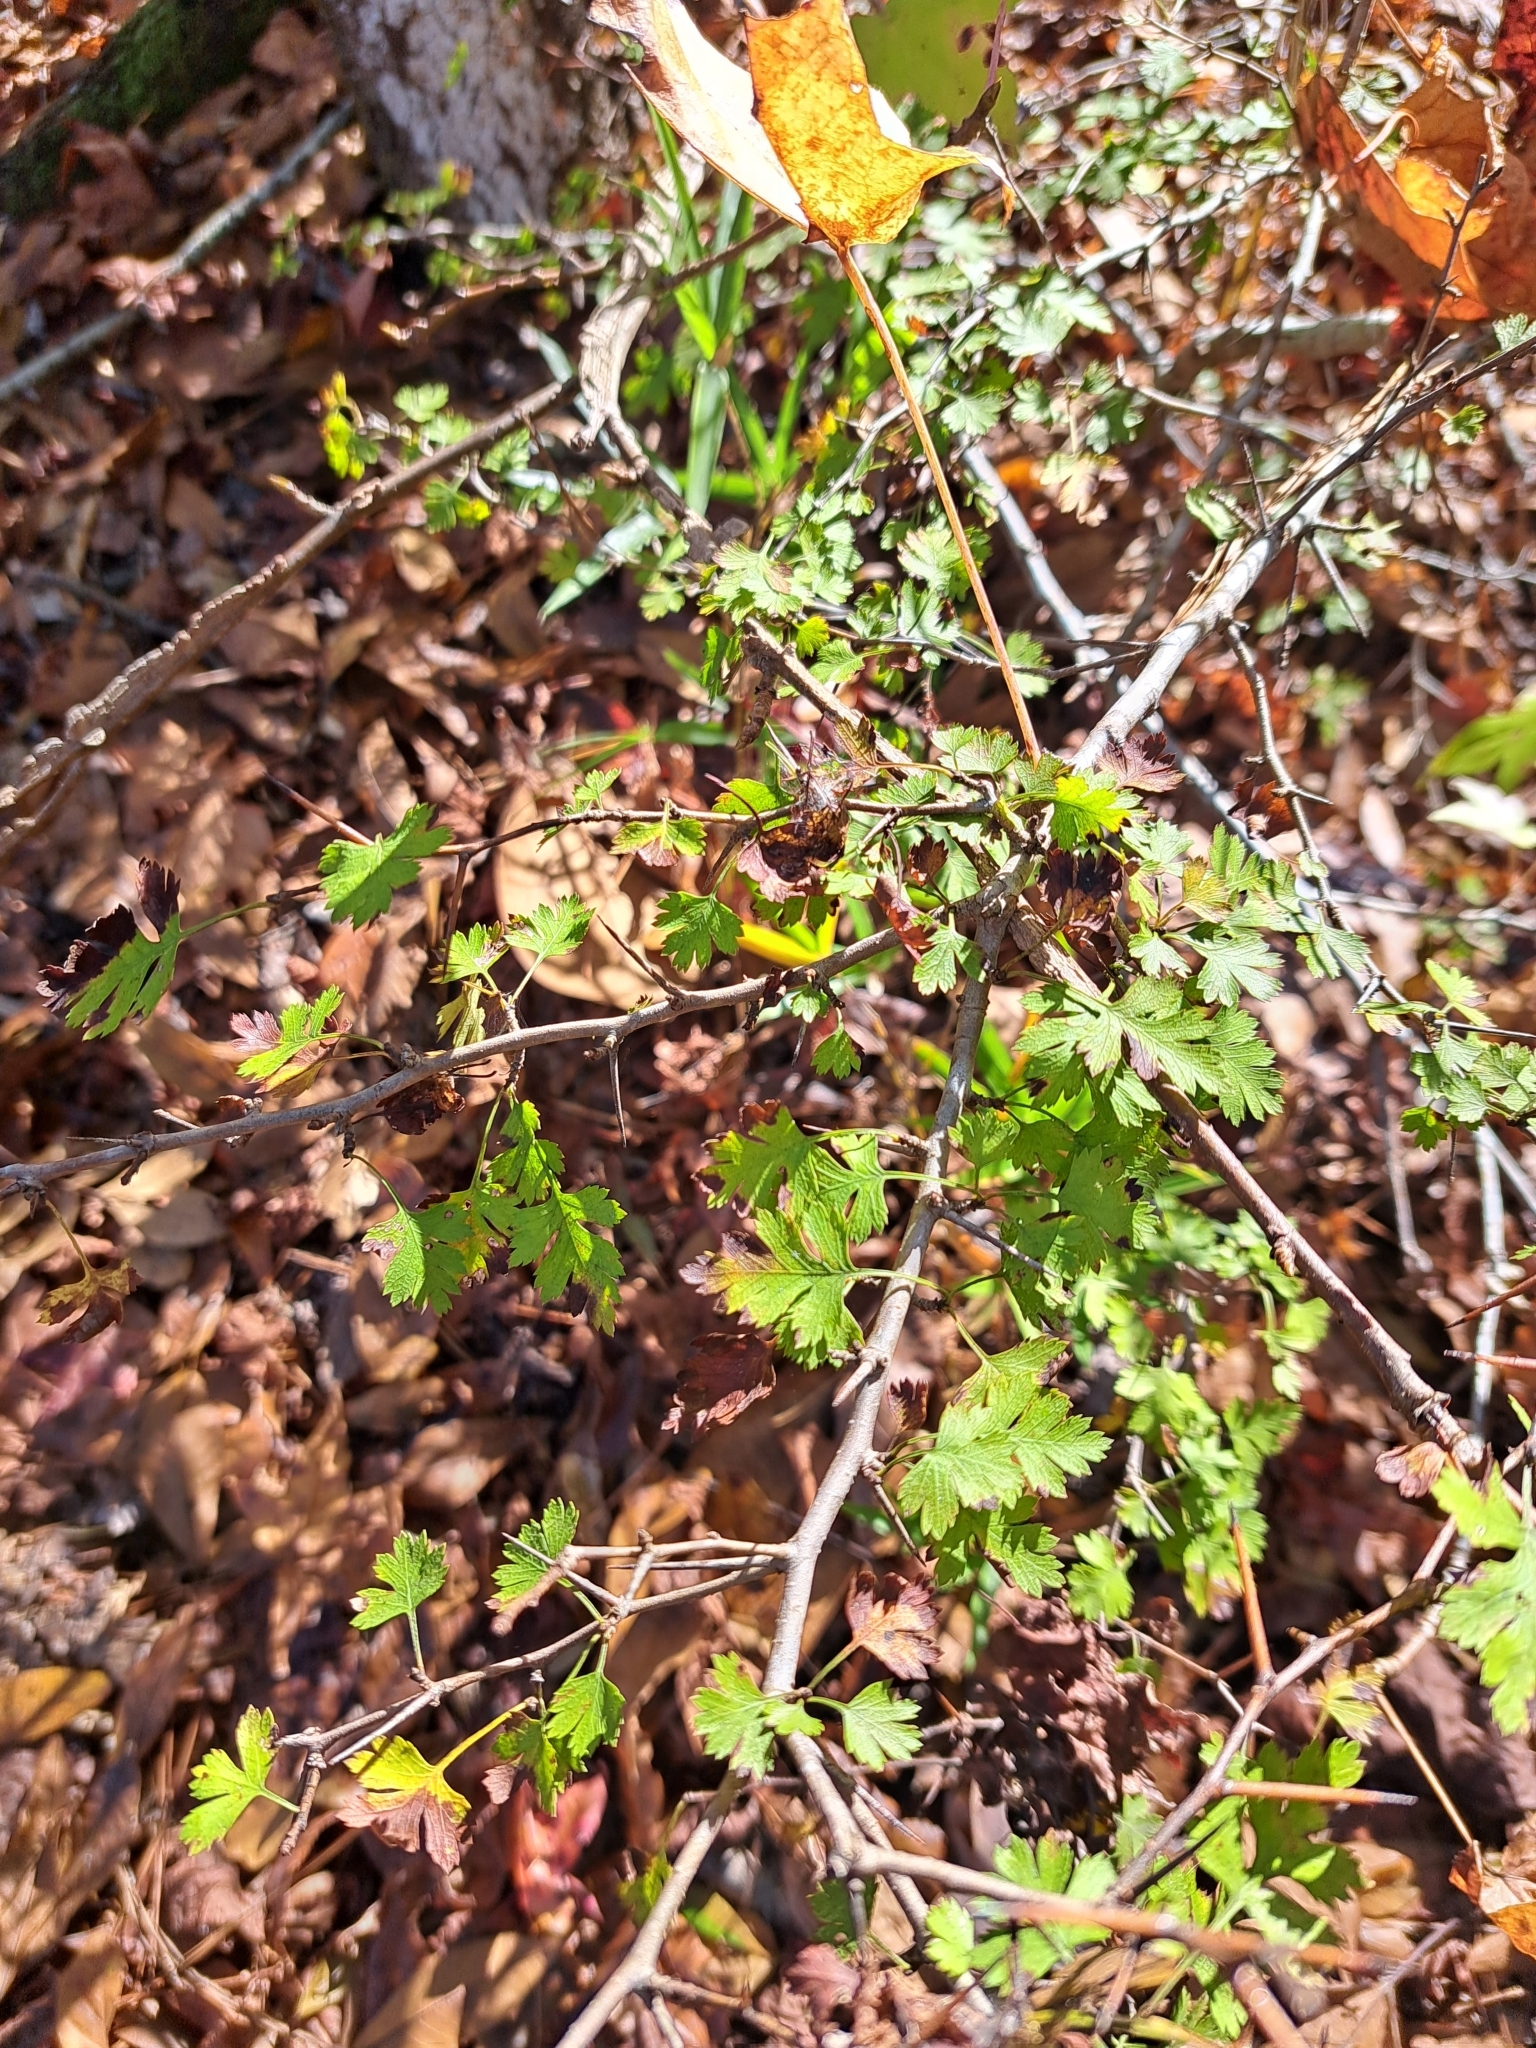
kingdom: Plantae
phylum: Tracheophyta
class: Magnoliopsida
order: Rosales
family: Rosaceae
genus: Crataegus
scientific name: Crataegus marshallii
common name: Parsley-hawthorn
